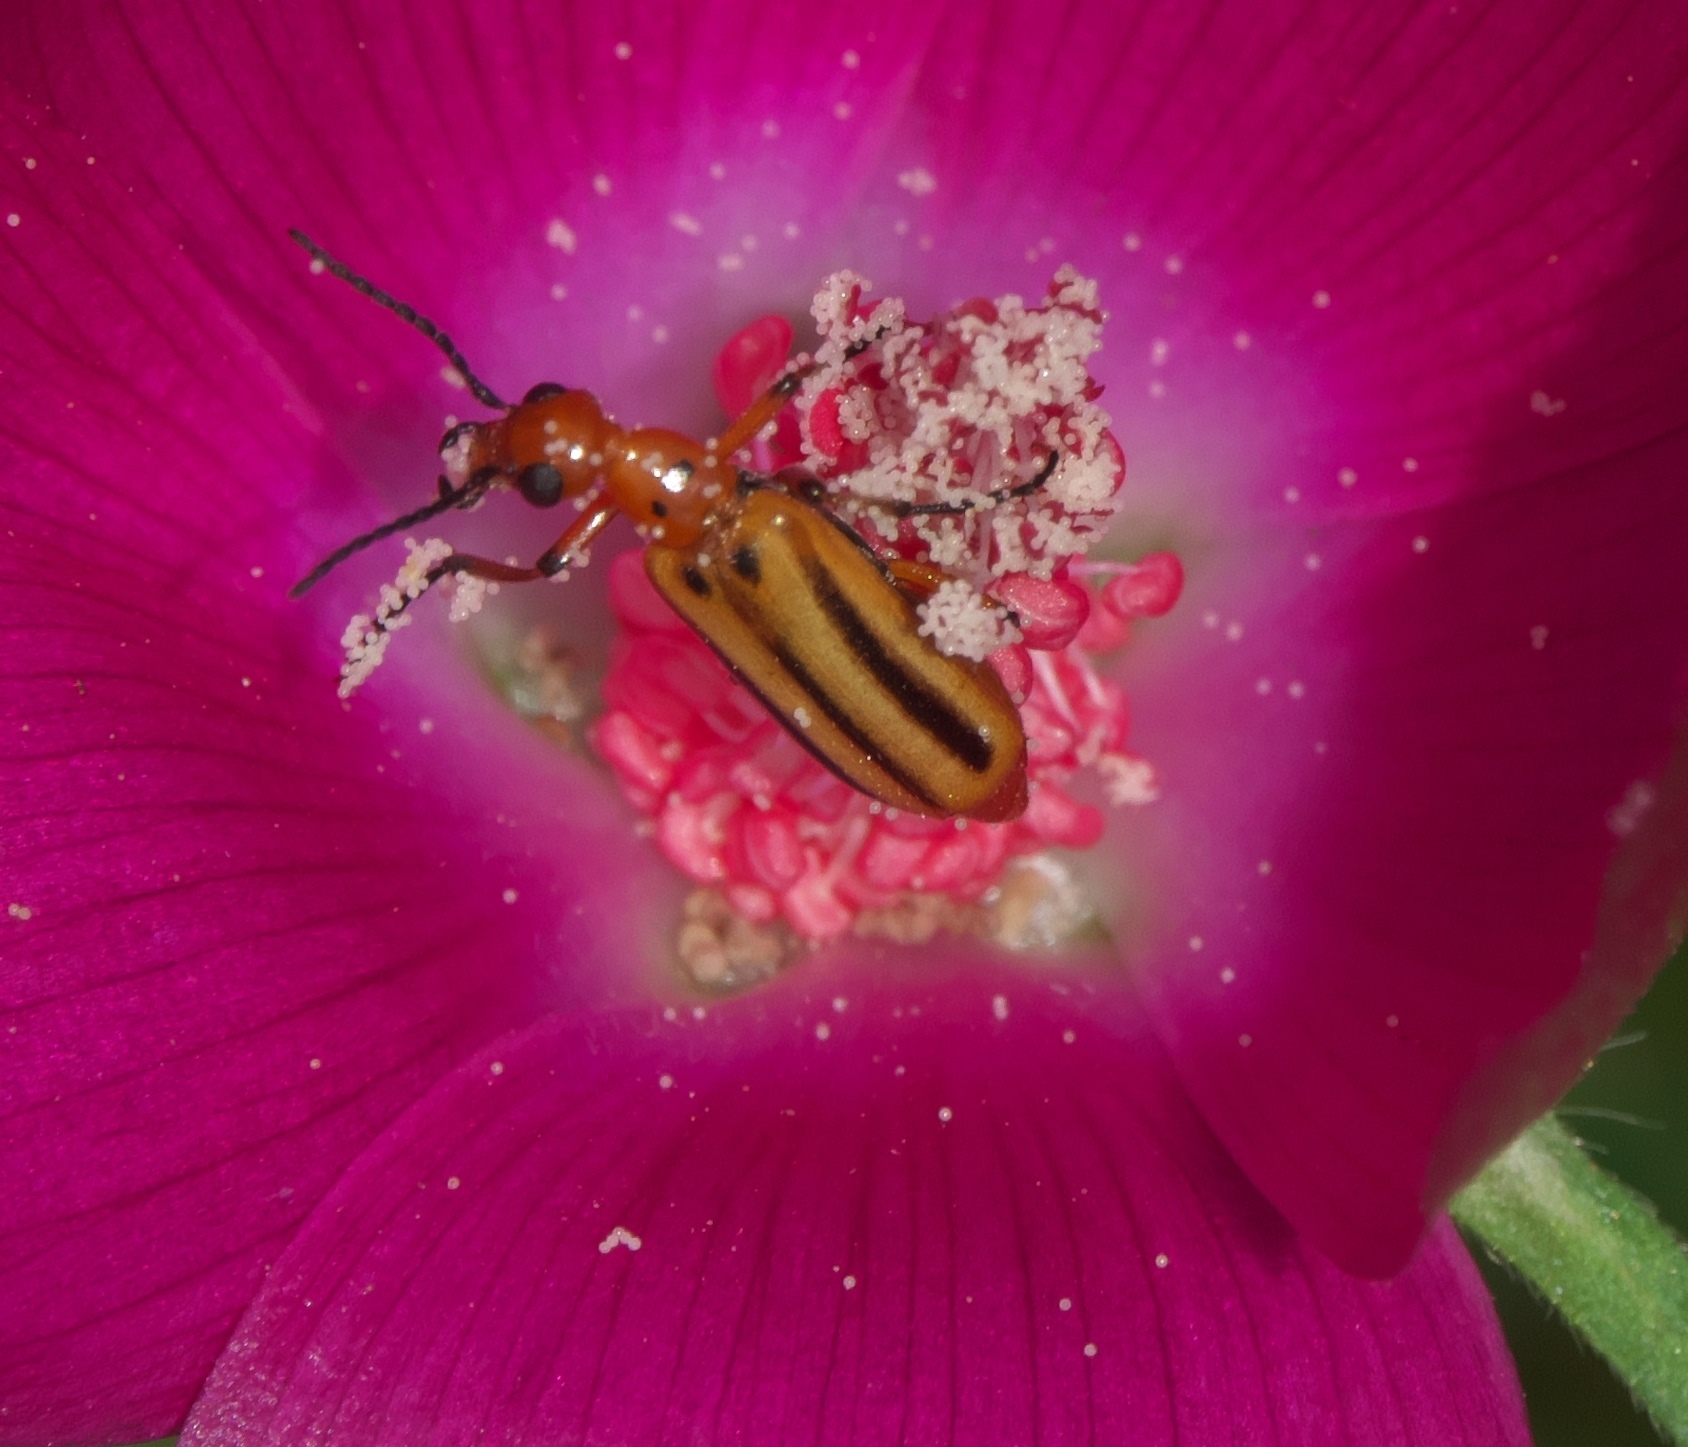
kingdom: Animalia
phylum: Arthropoda
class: Insecta
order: Coleoptera
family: Meloidae
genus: Pyrota
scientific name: Pyrota discoidea
